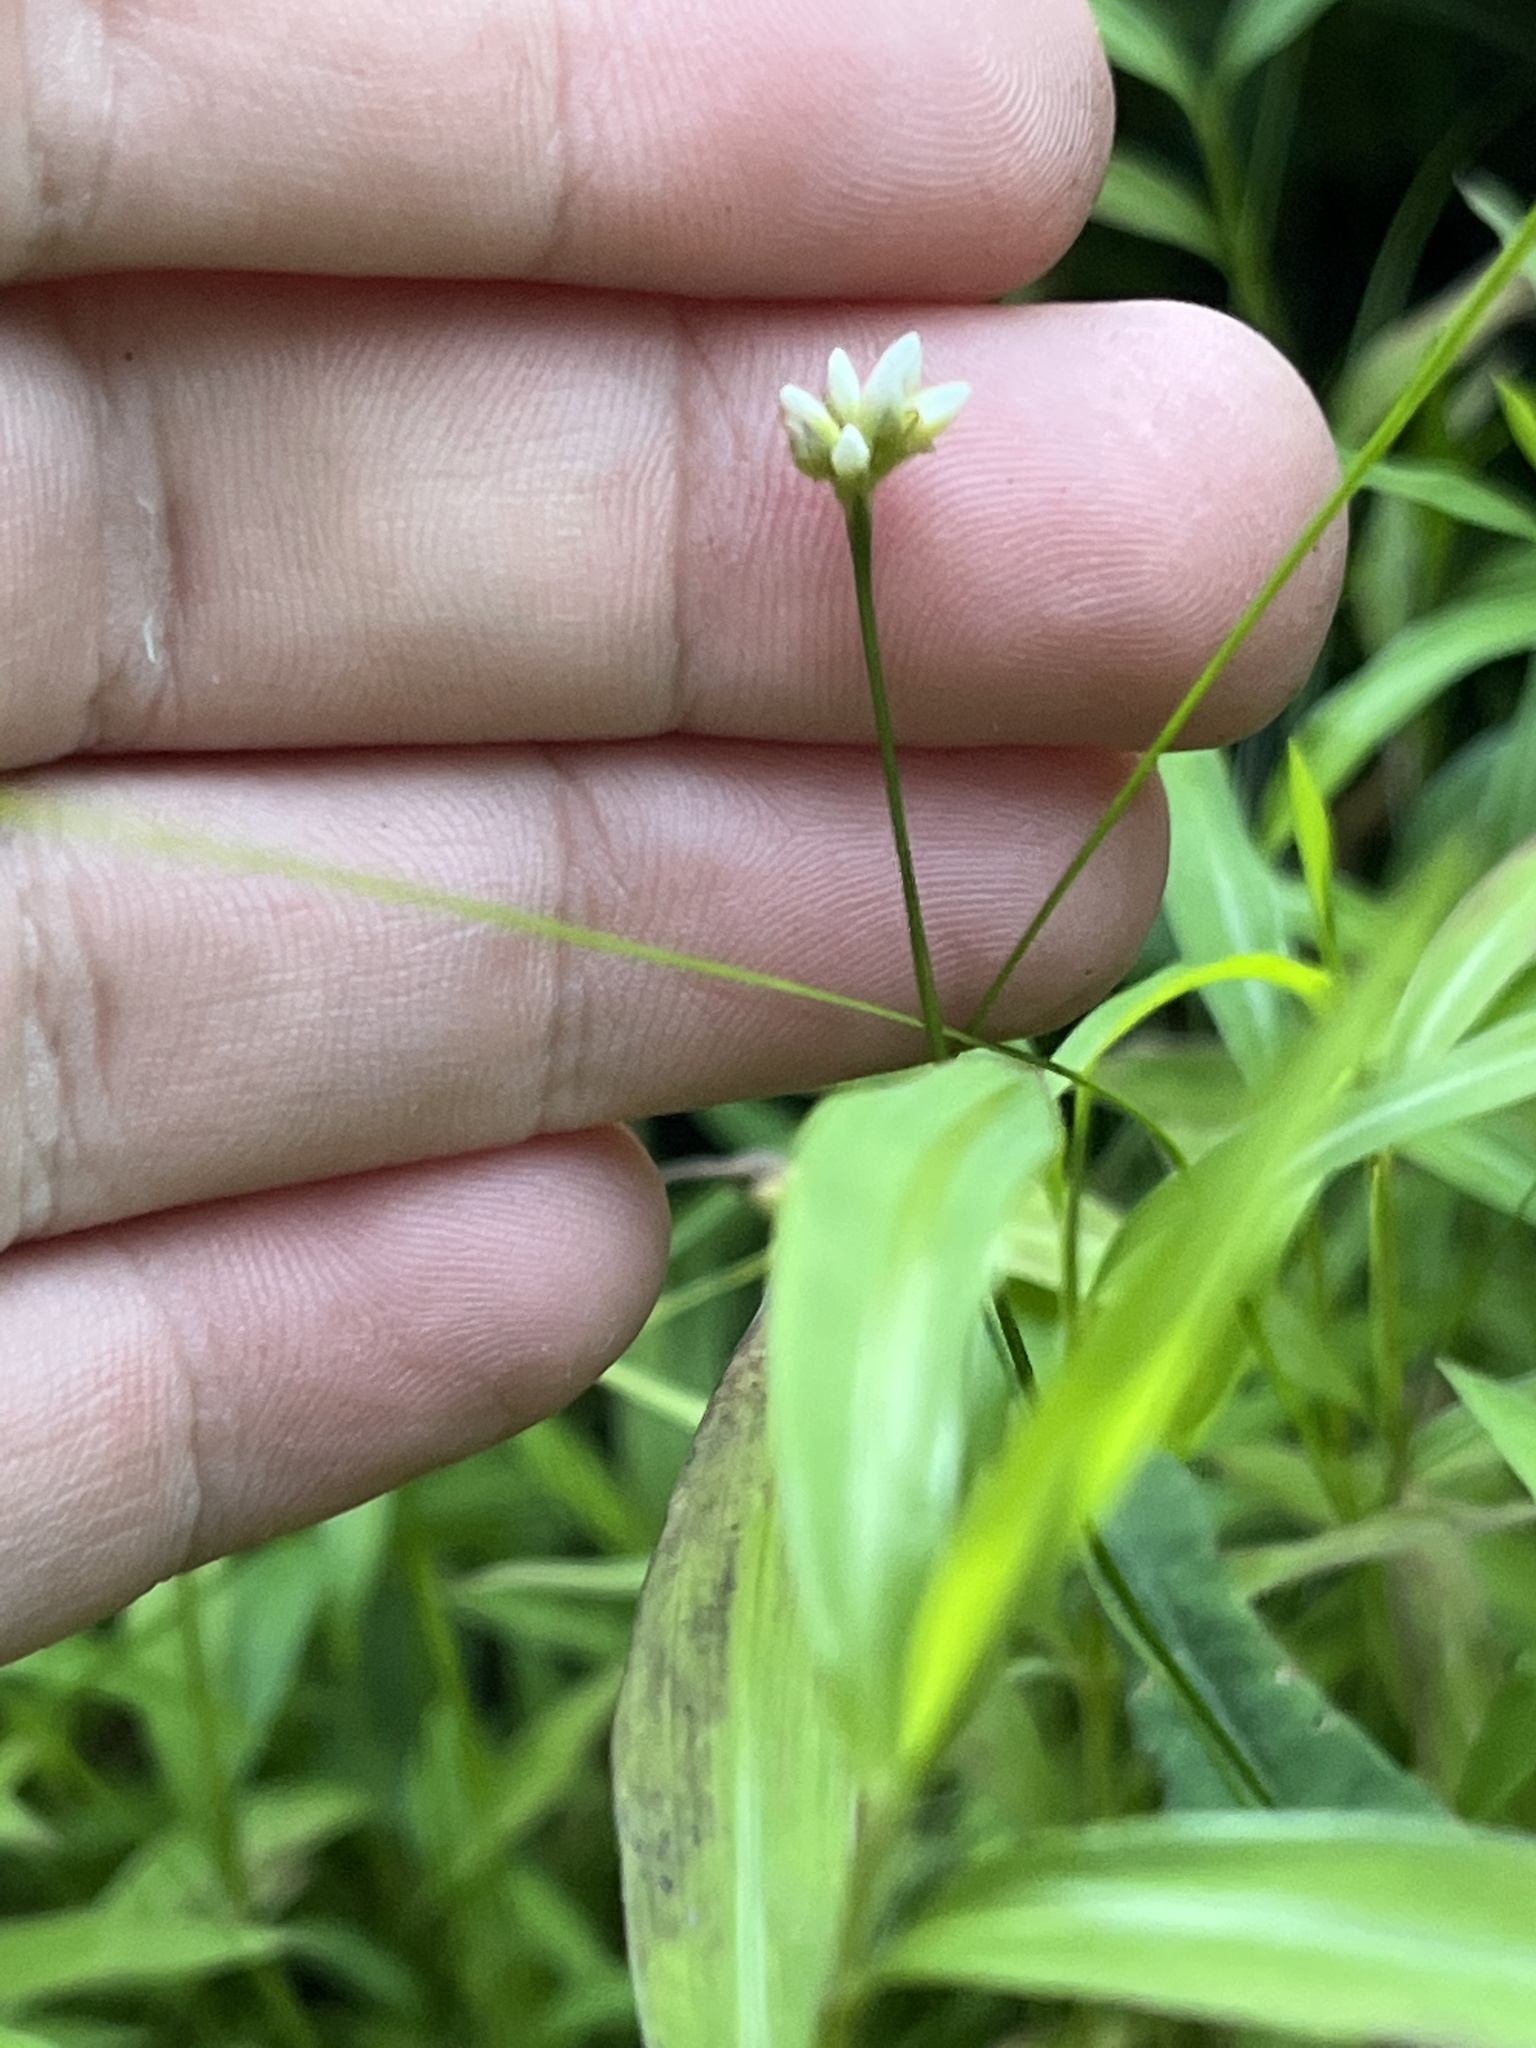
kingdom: Plantae
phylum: Tracheophyta
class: Magnoliopsida
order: Caryophyllales
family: Polygonaceae
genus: Persicaria
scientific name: Persicaria sagittata
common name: American tearthumb
